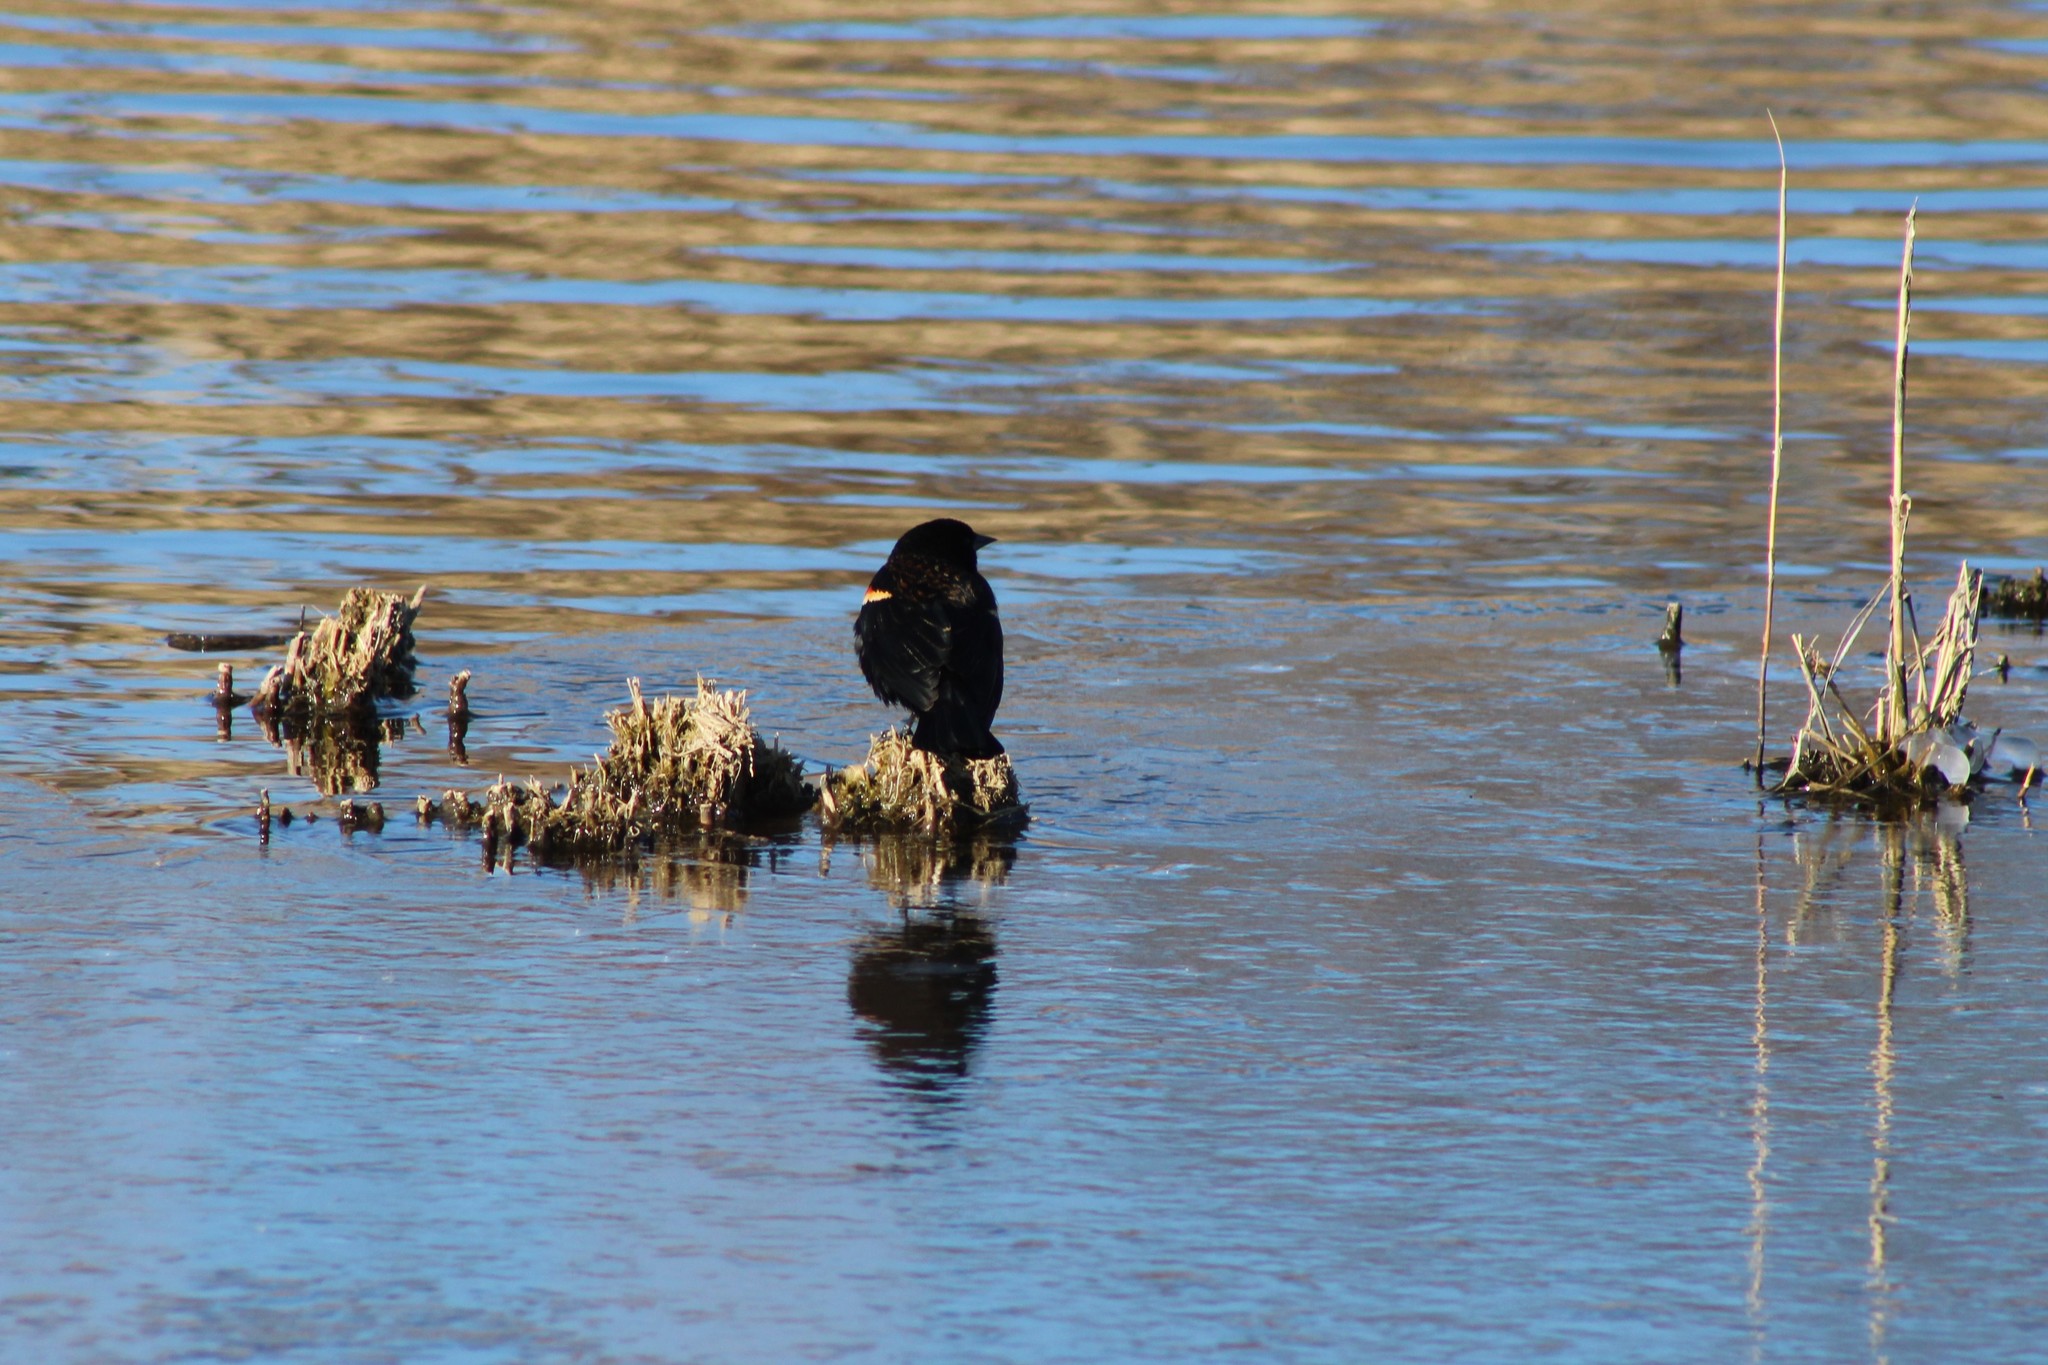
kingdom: Animalia
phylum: Chordata
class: Aves
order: Passeriformes
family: Icteridae
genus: Agelaius
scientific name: Agelaius phoeniceus
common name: Red-winged blackbird
